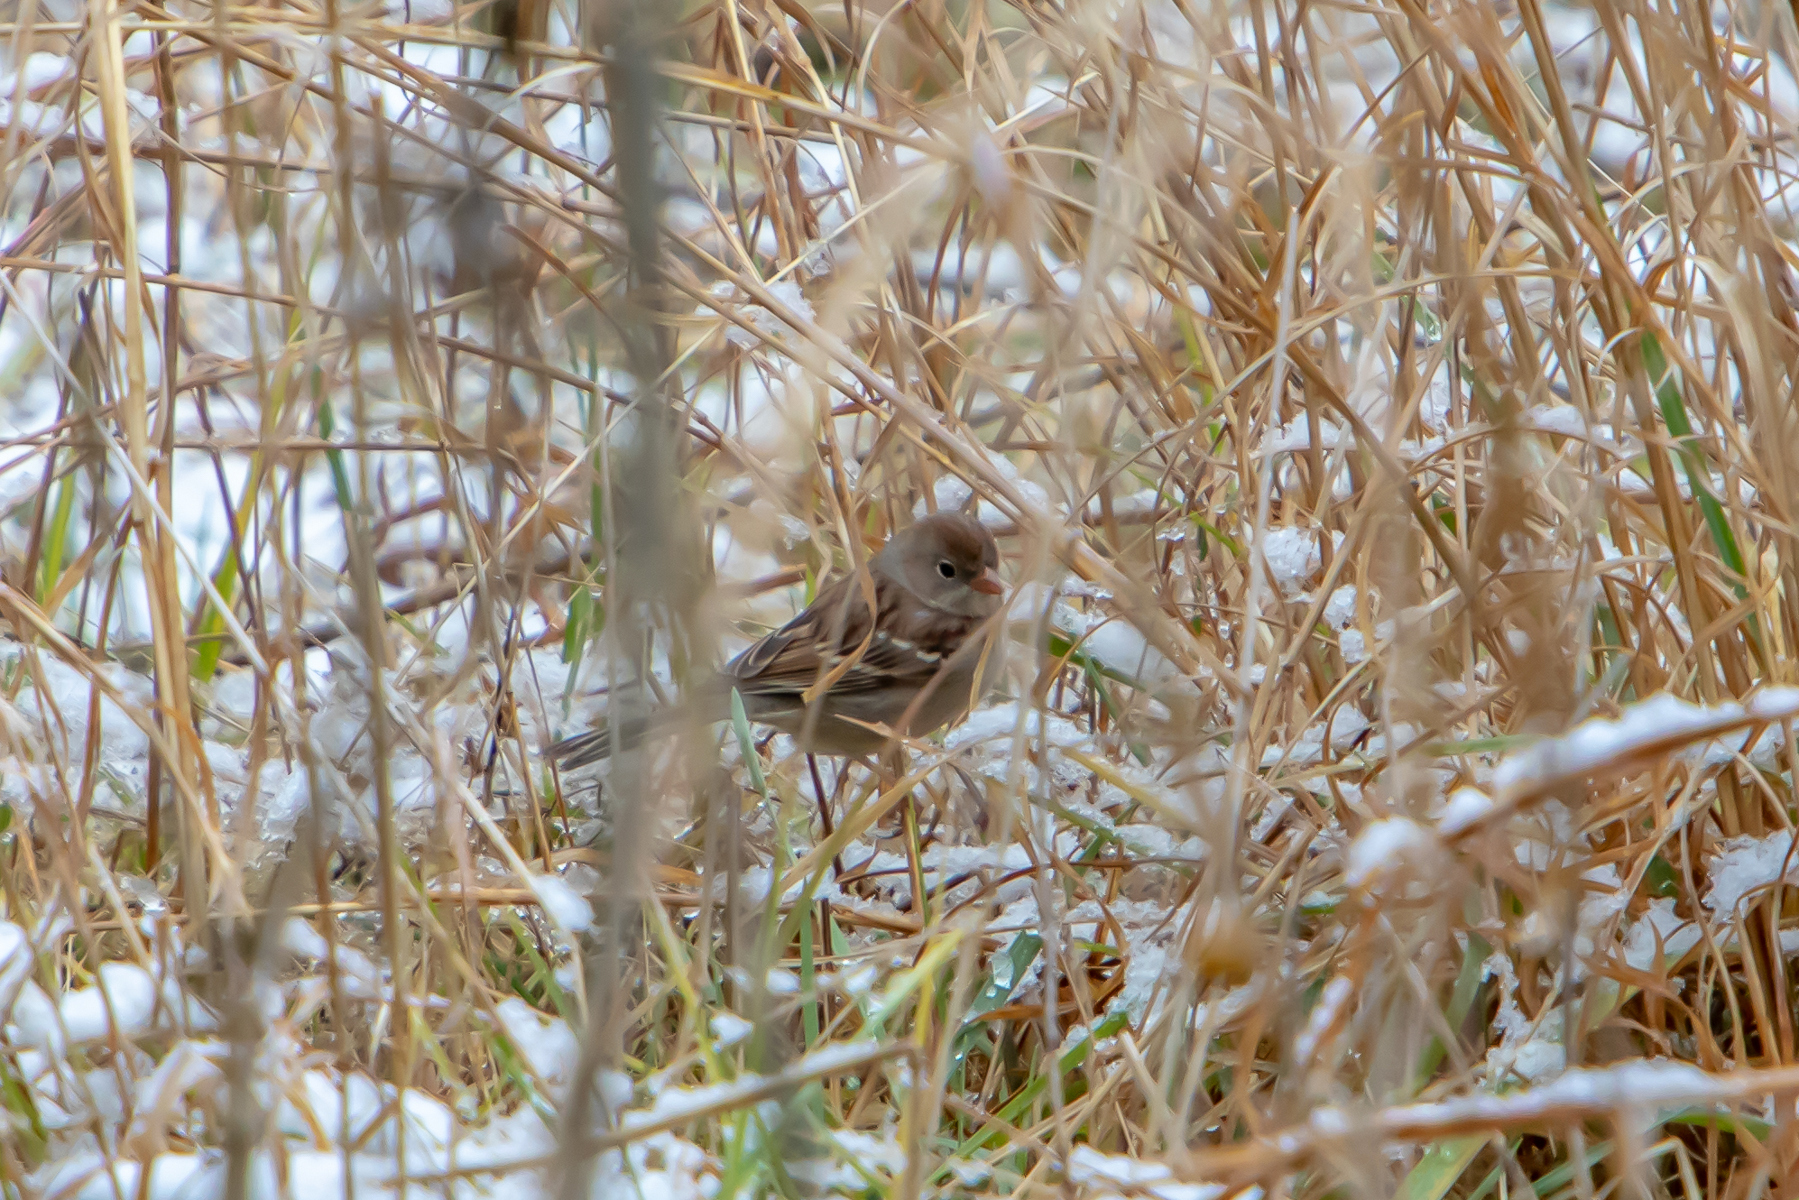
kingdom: Animalia
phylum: Chordata
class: Aves
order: Passeriformes
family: Passerellidae
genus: Spizella
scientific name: Spizella pusilla
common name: Field sparrow
